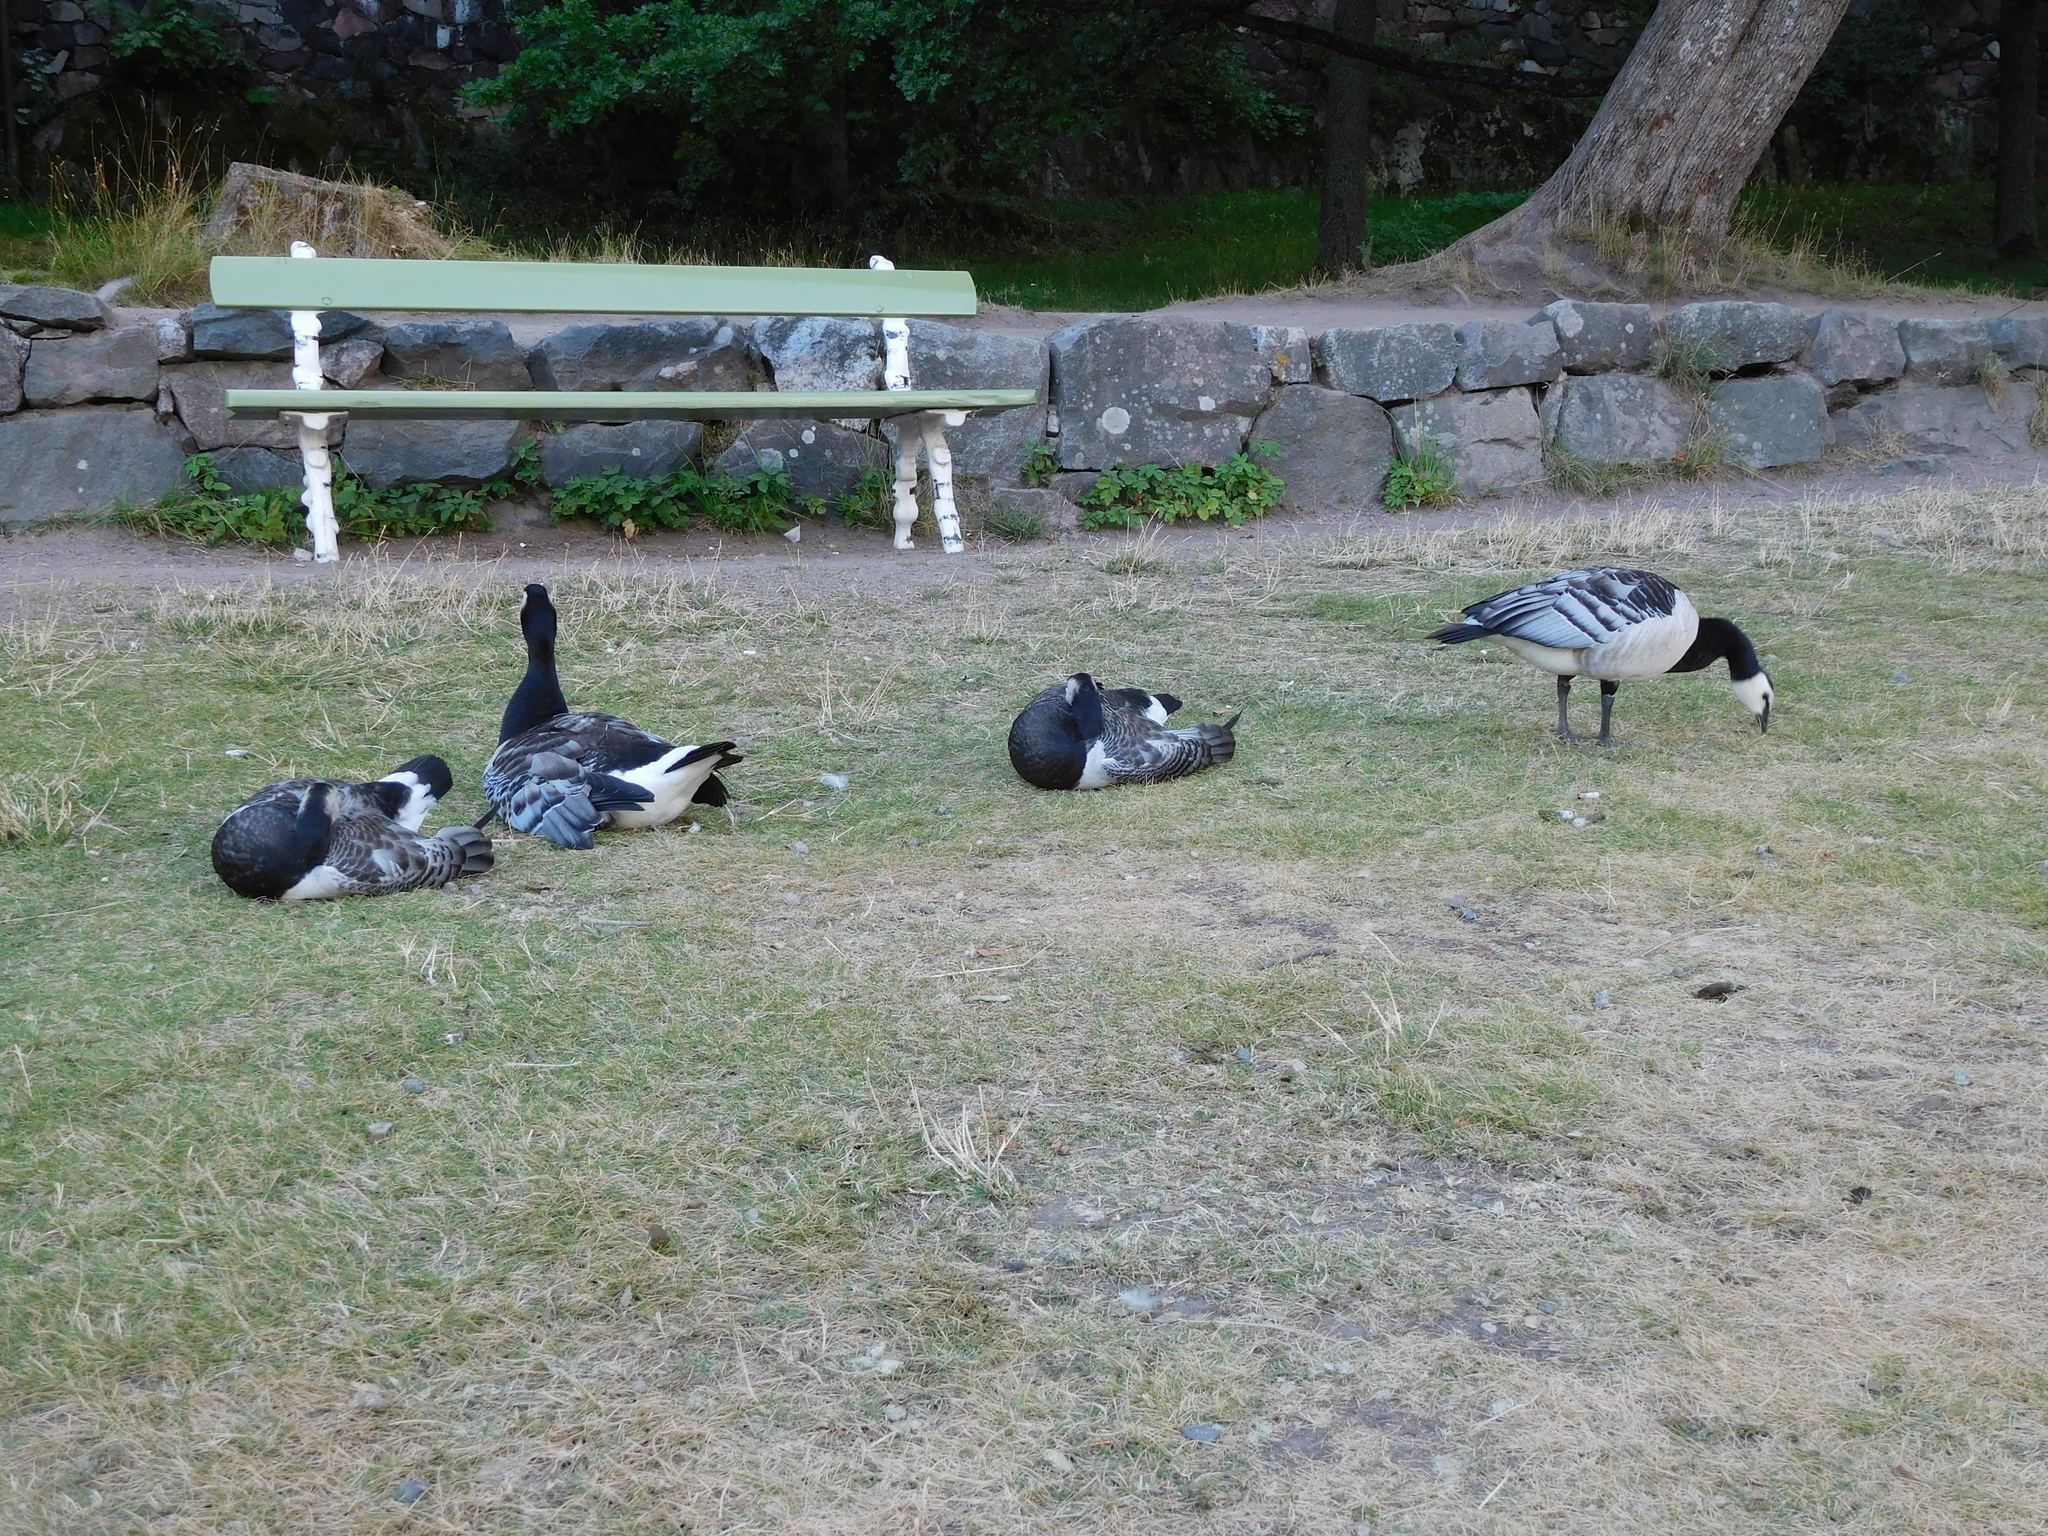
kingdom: Animalia
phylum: Chordata
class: Aves
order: Anseriformes
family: Anatidae
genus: Branta
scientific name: Branta leucopsis
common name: Barnacle goose
